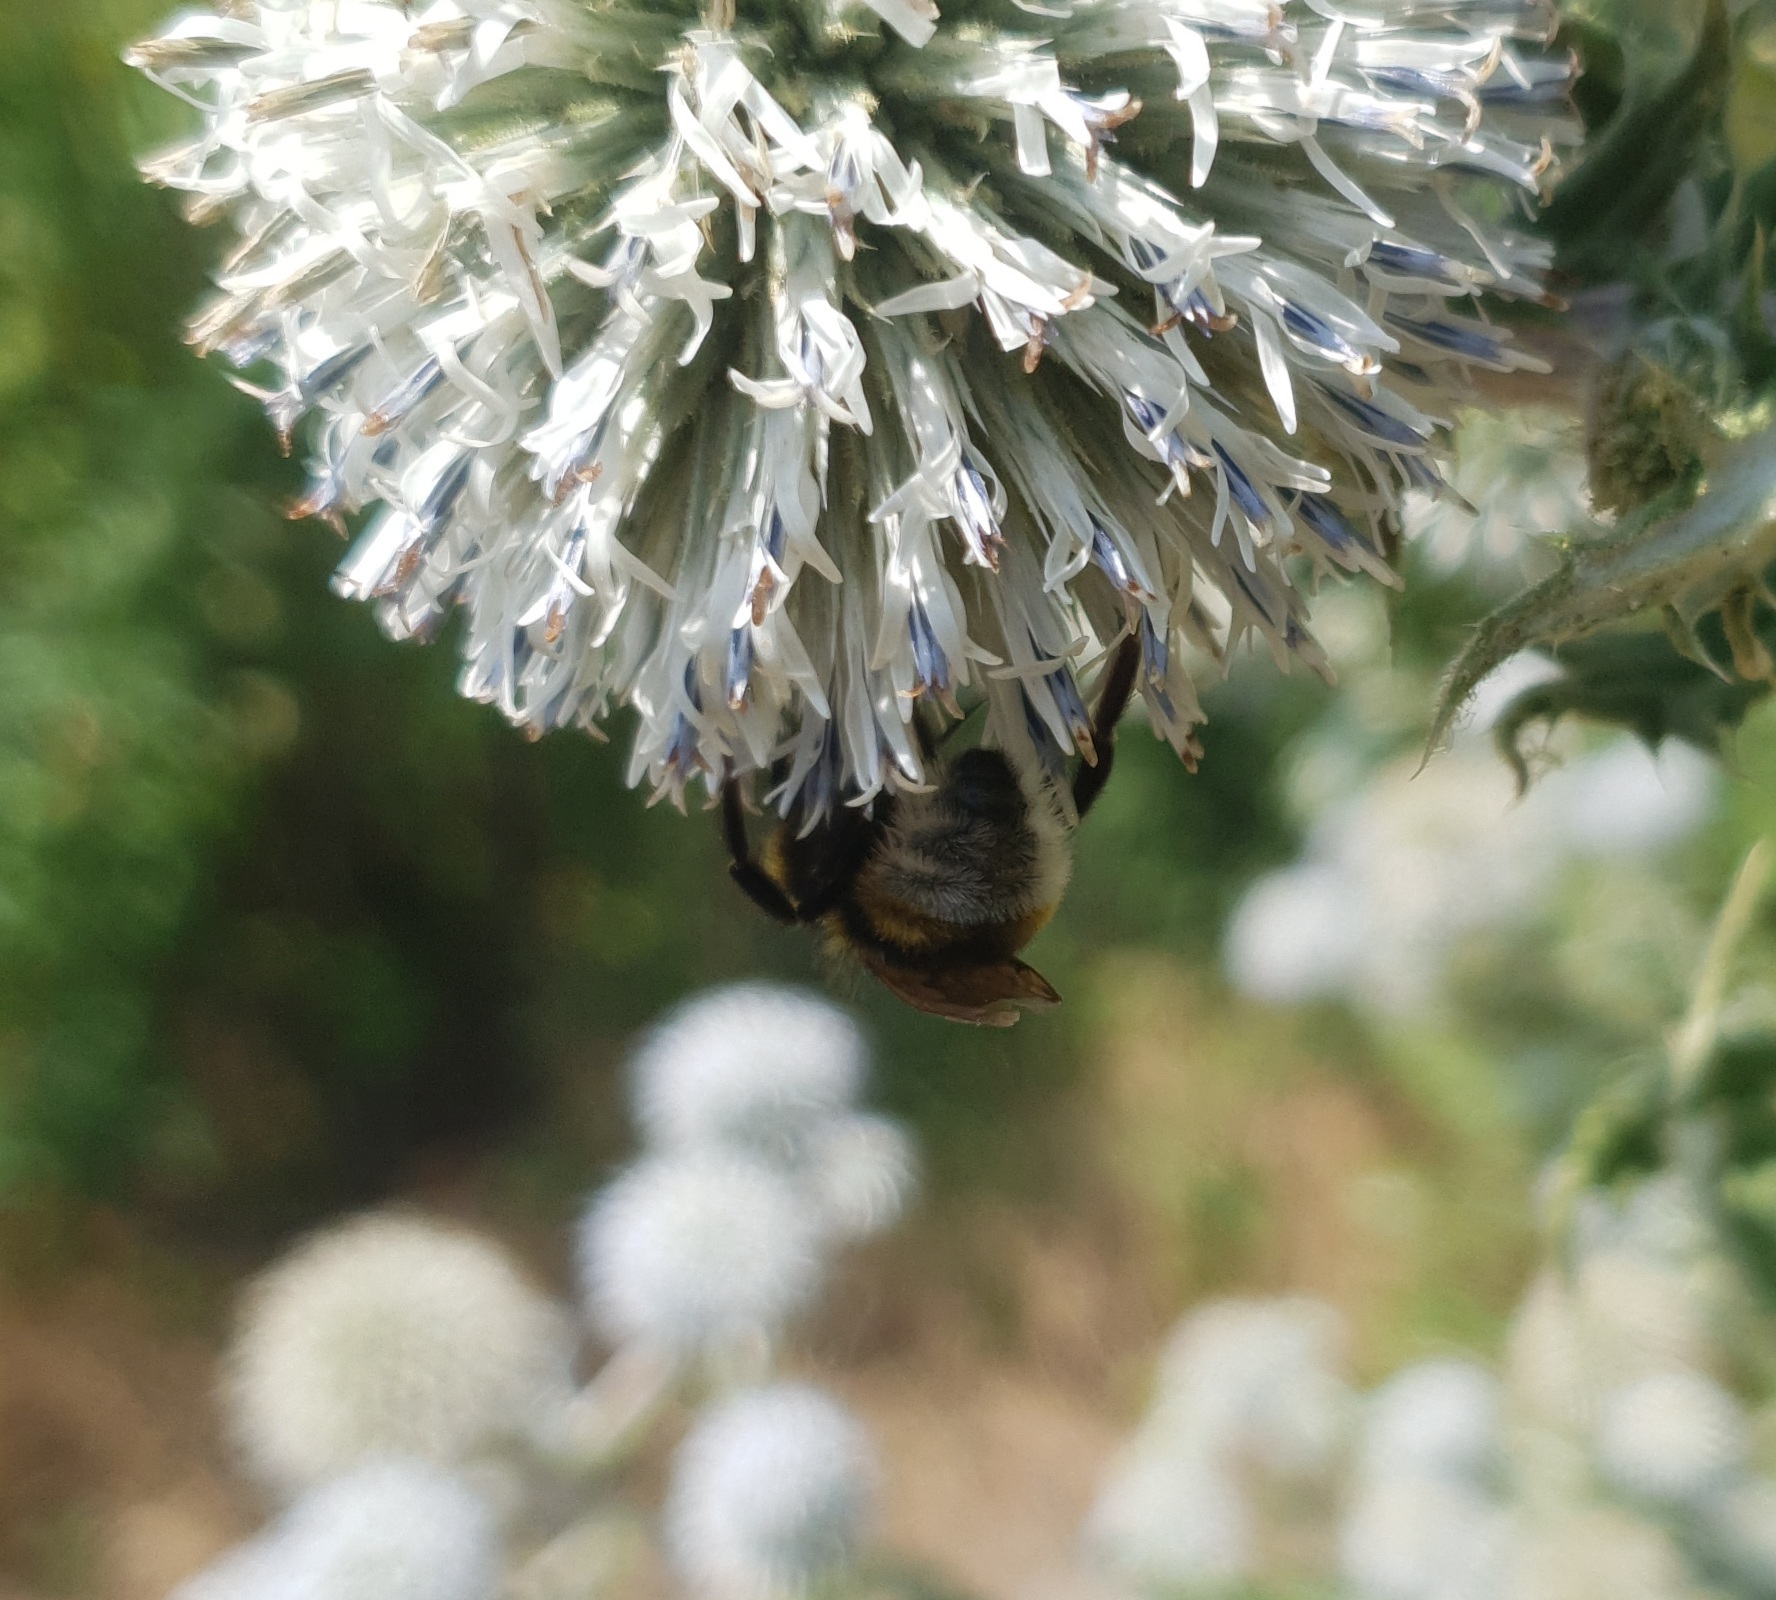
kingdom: Animalia
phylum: Arthropoda
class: Insecta
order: Hymenoptera
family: Apidae
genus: Bombus
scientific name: Bombus vestalis
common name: Vestal cuckoo bee
